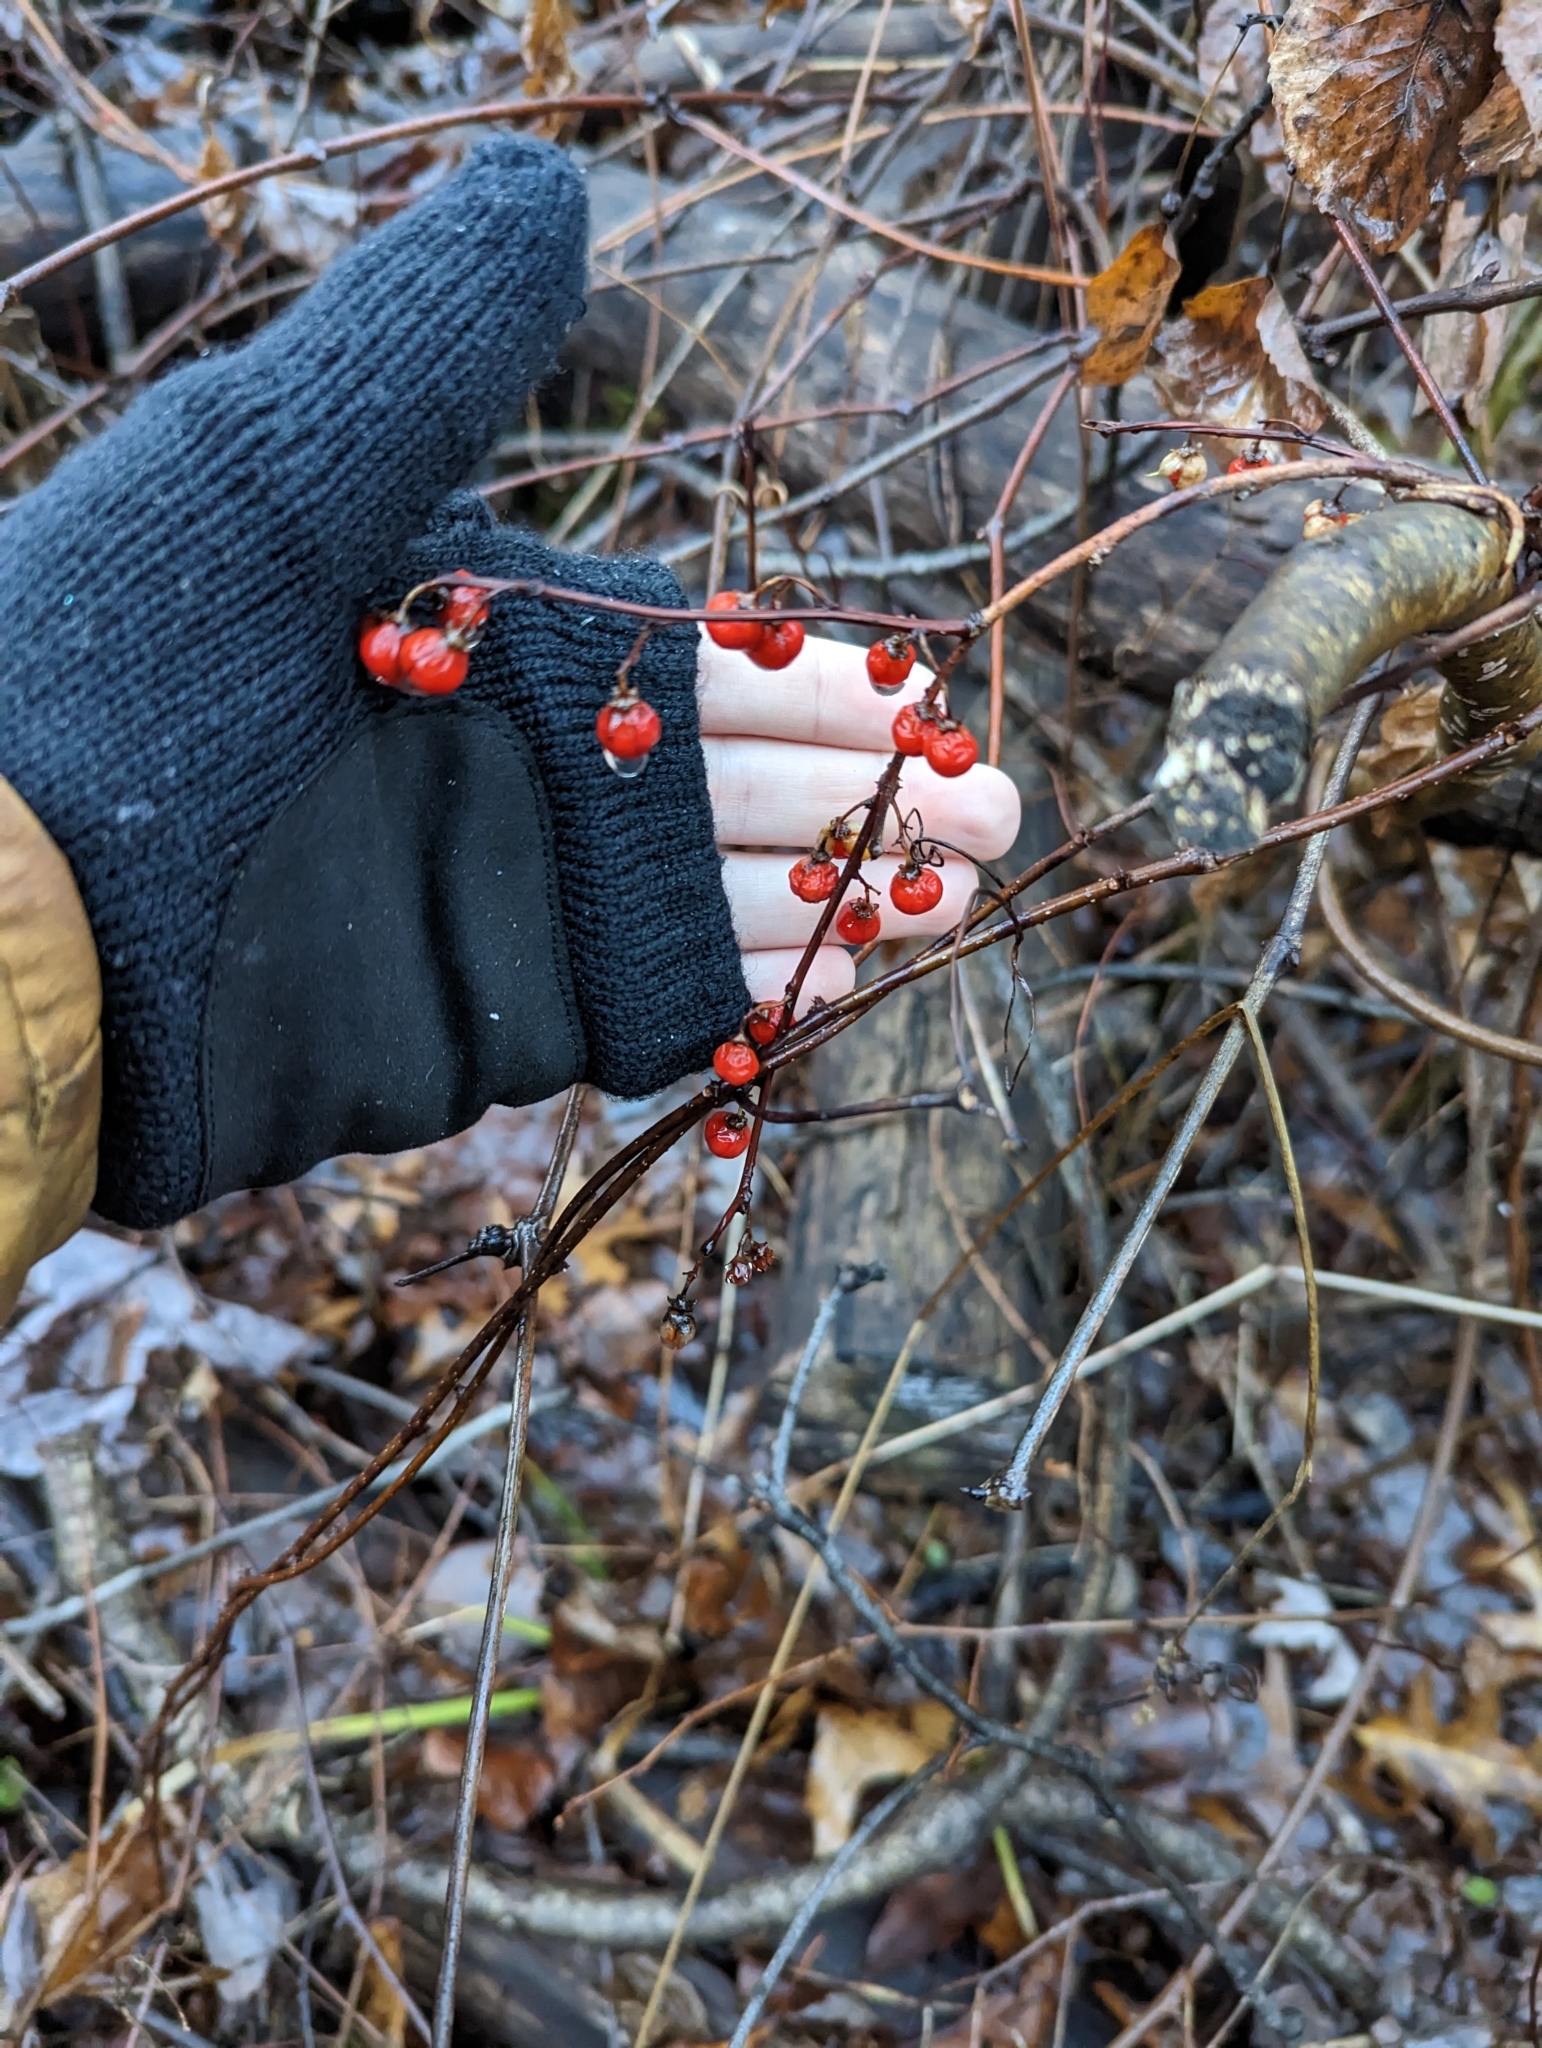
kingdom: Plantae
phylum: Tracheophyta
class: Magnoliopsida
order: Celastrales
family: Celastraceae
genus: Celastrus
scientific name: Celastrus orbiculatus
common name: Oriental bittersweet
